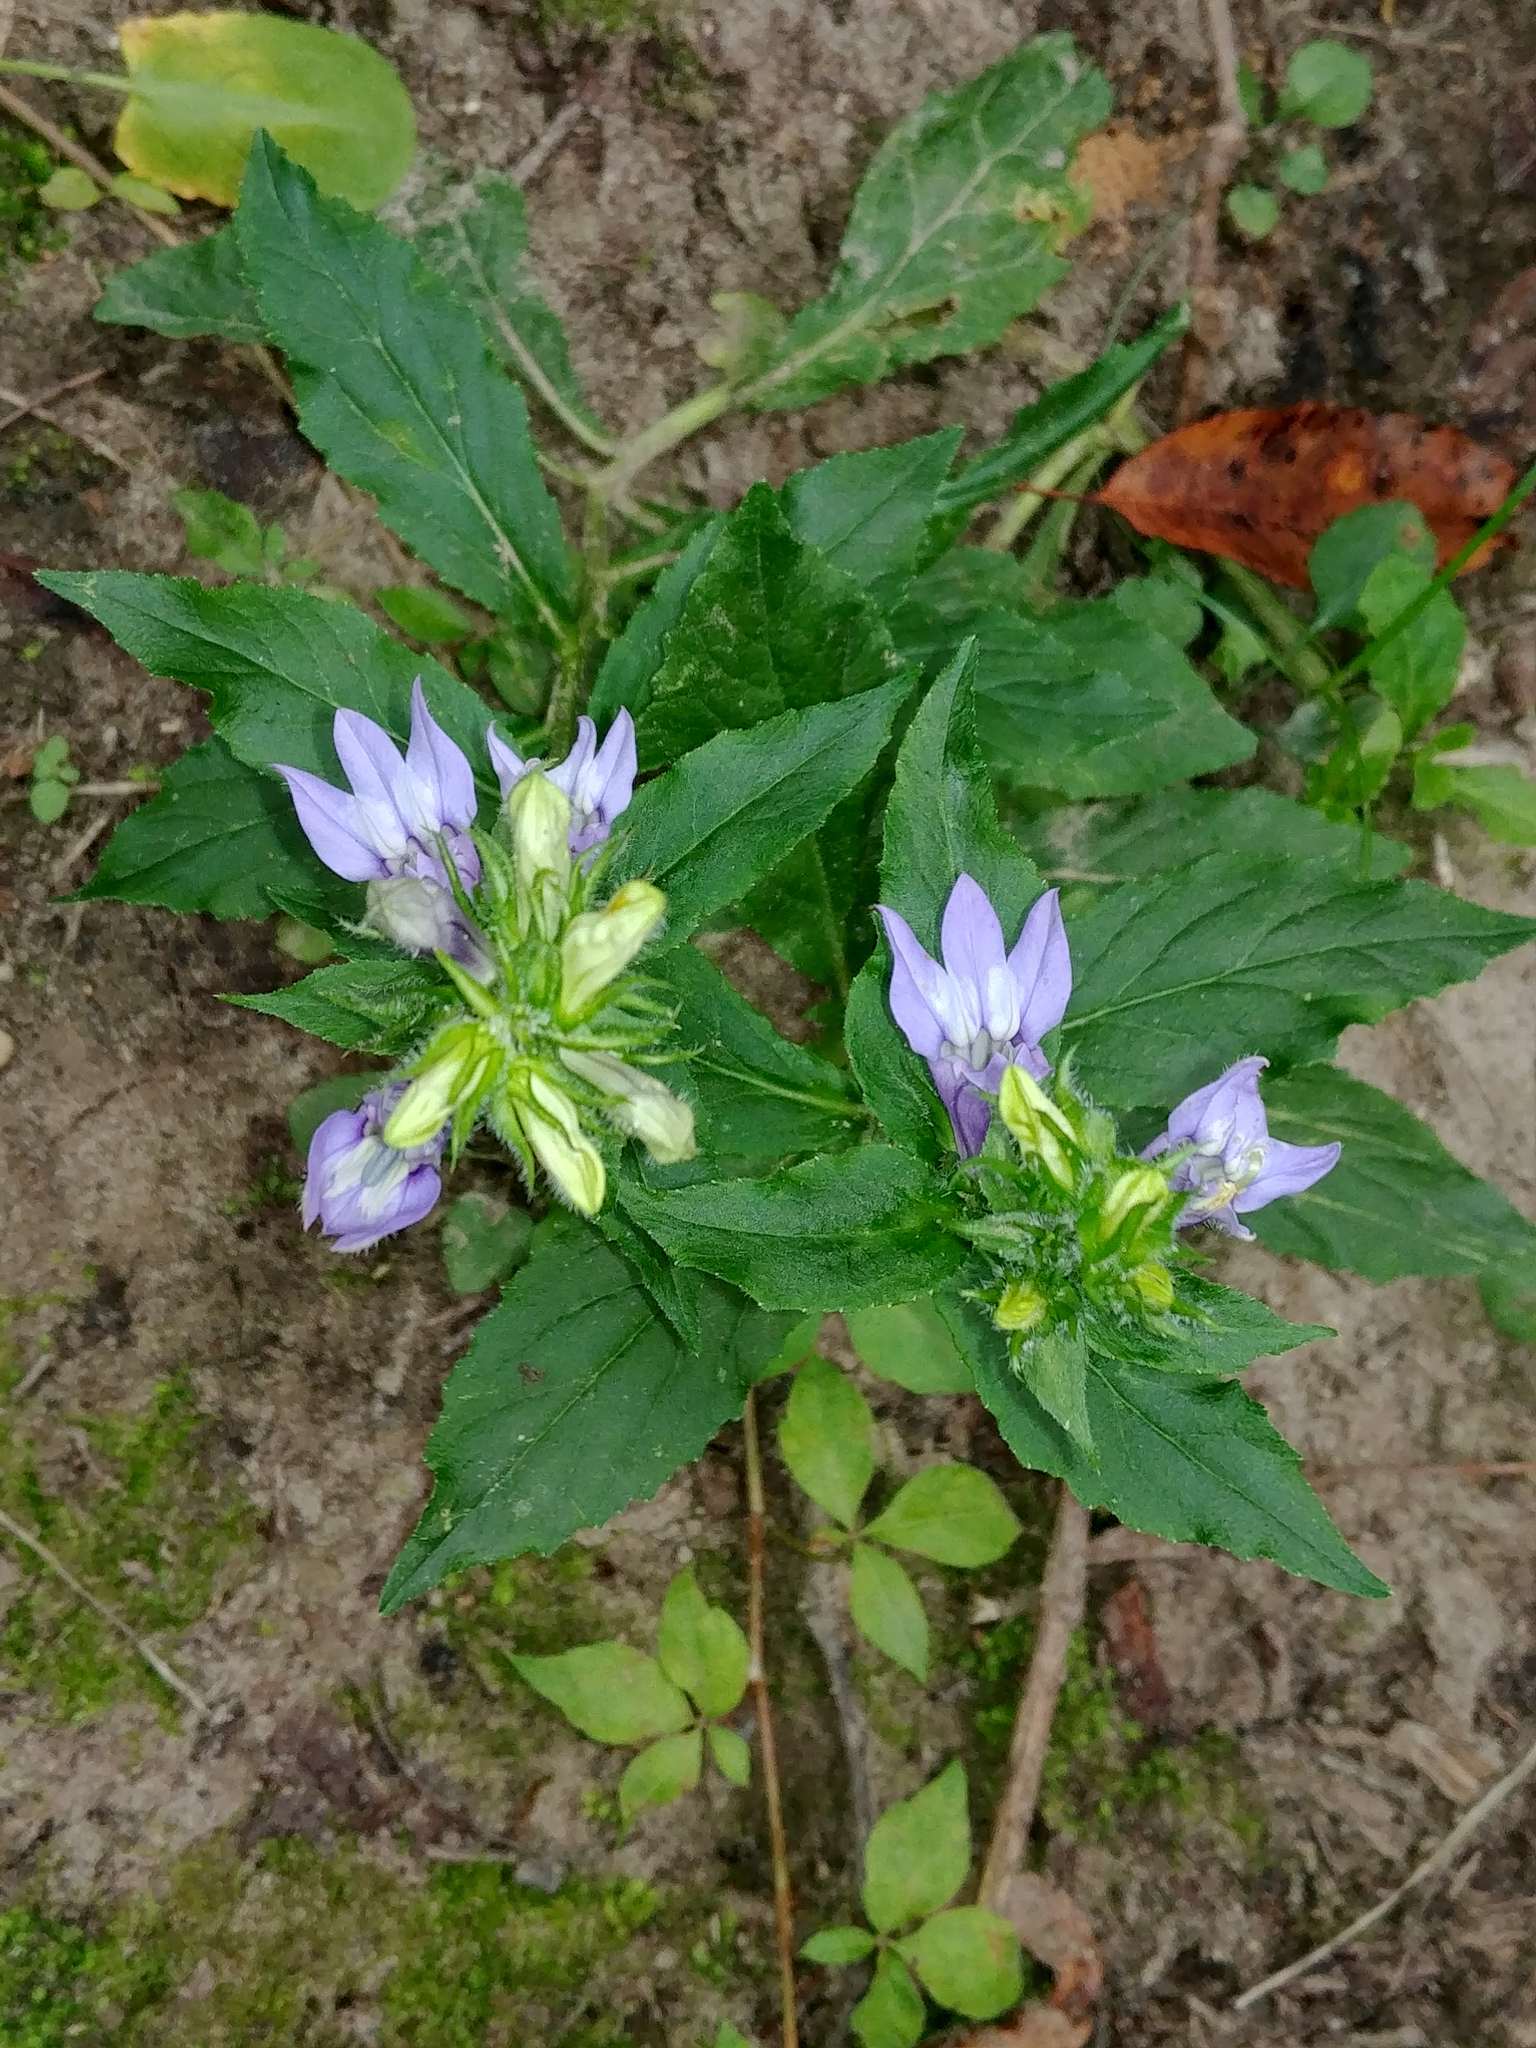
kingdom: Plantae
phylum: Tracheophyta
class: Magnoliopsida
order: Asterales
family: Campanulaceae
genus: Lobelia
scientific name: Lobelia siphilitica
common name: Great lobelia
